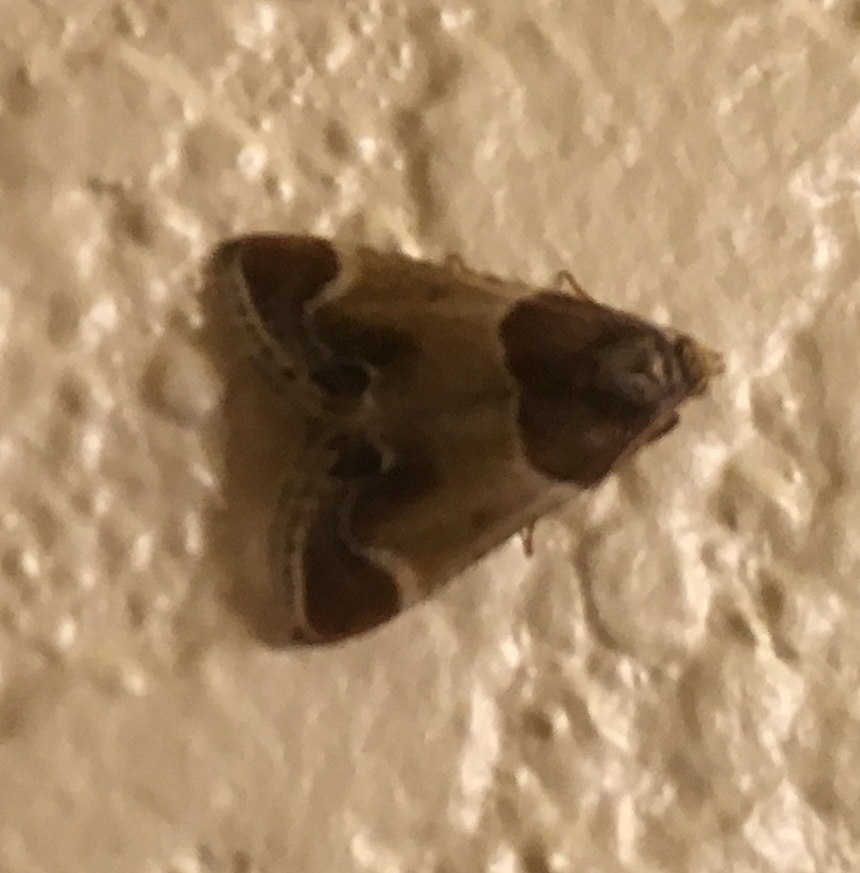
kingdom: Animalia
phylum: Arthropoda
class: Insecta
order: Lepidoptera
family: Pyralidae
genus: Pyralis
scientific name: Pyralis farinalis
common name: Meal moth
